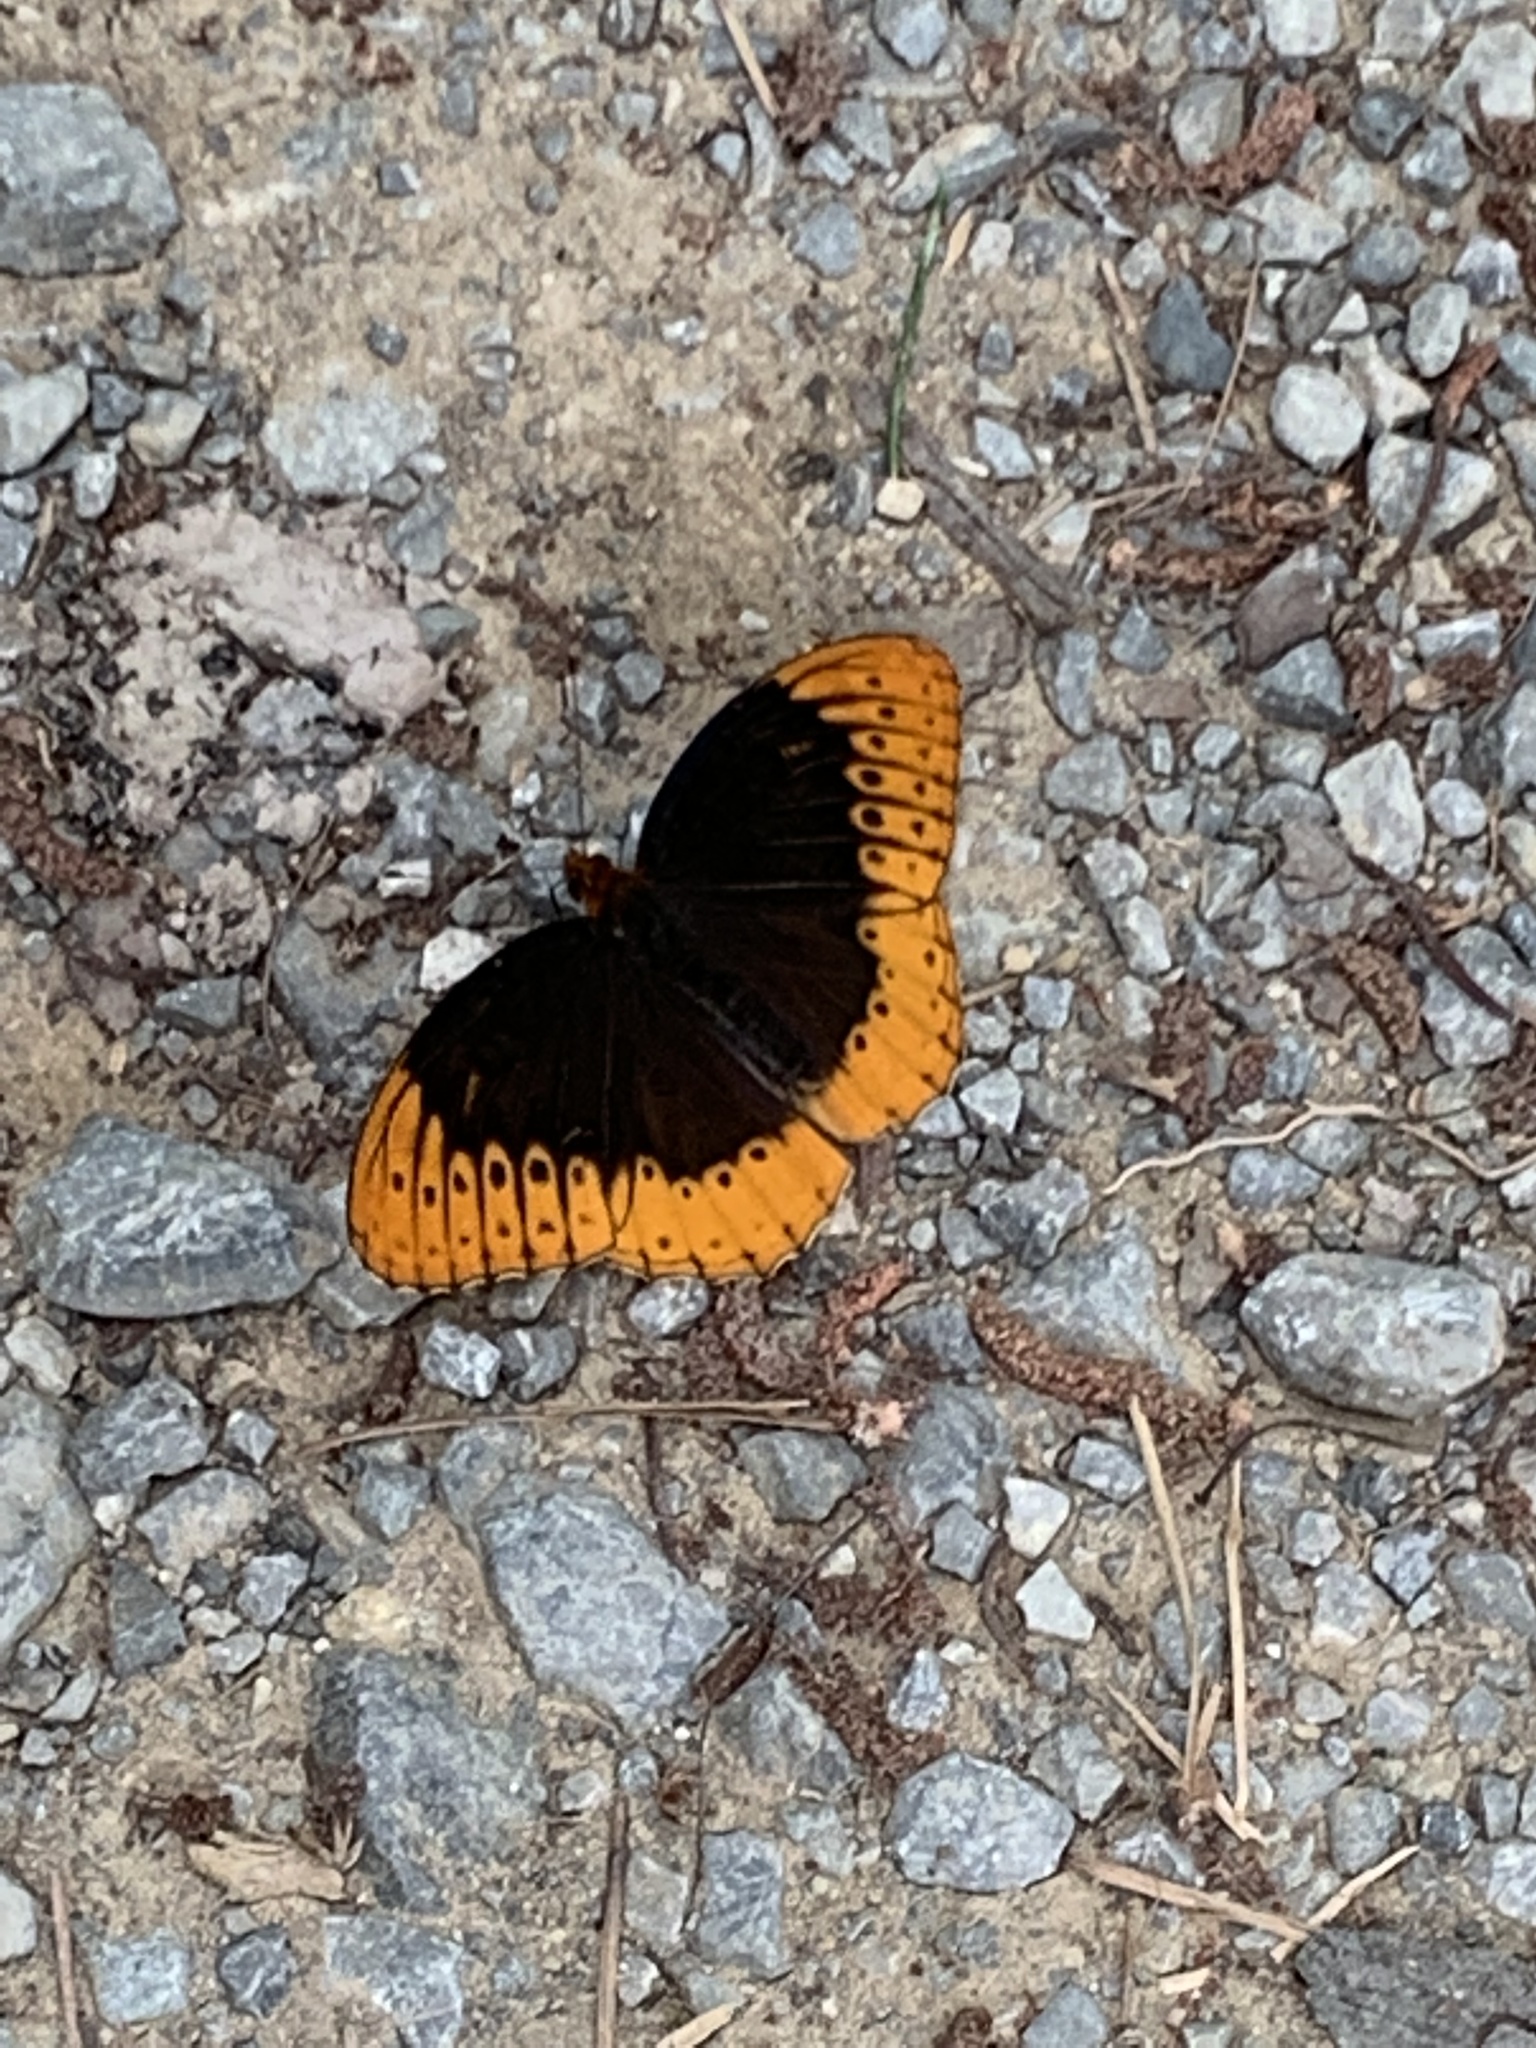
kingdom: Animalia
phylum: Arthropoda
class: Insecta
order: Lepidoptera
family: Nymphalidae
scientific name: Nymphalidae
